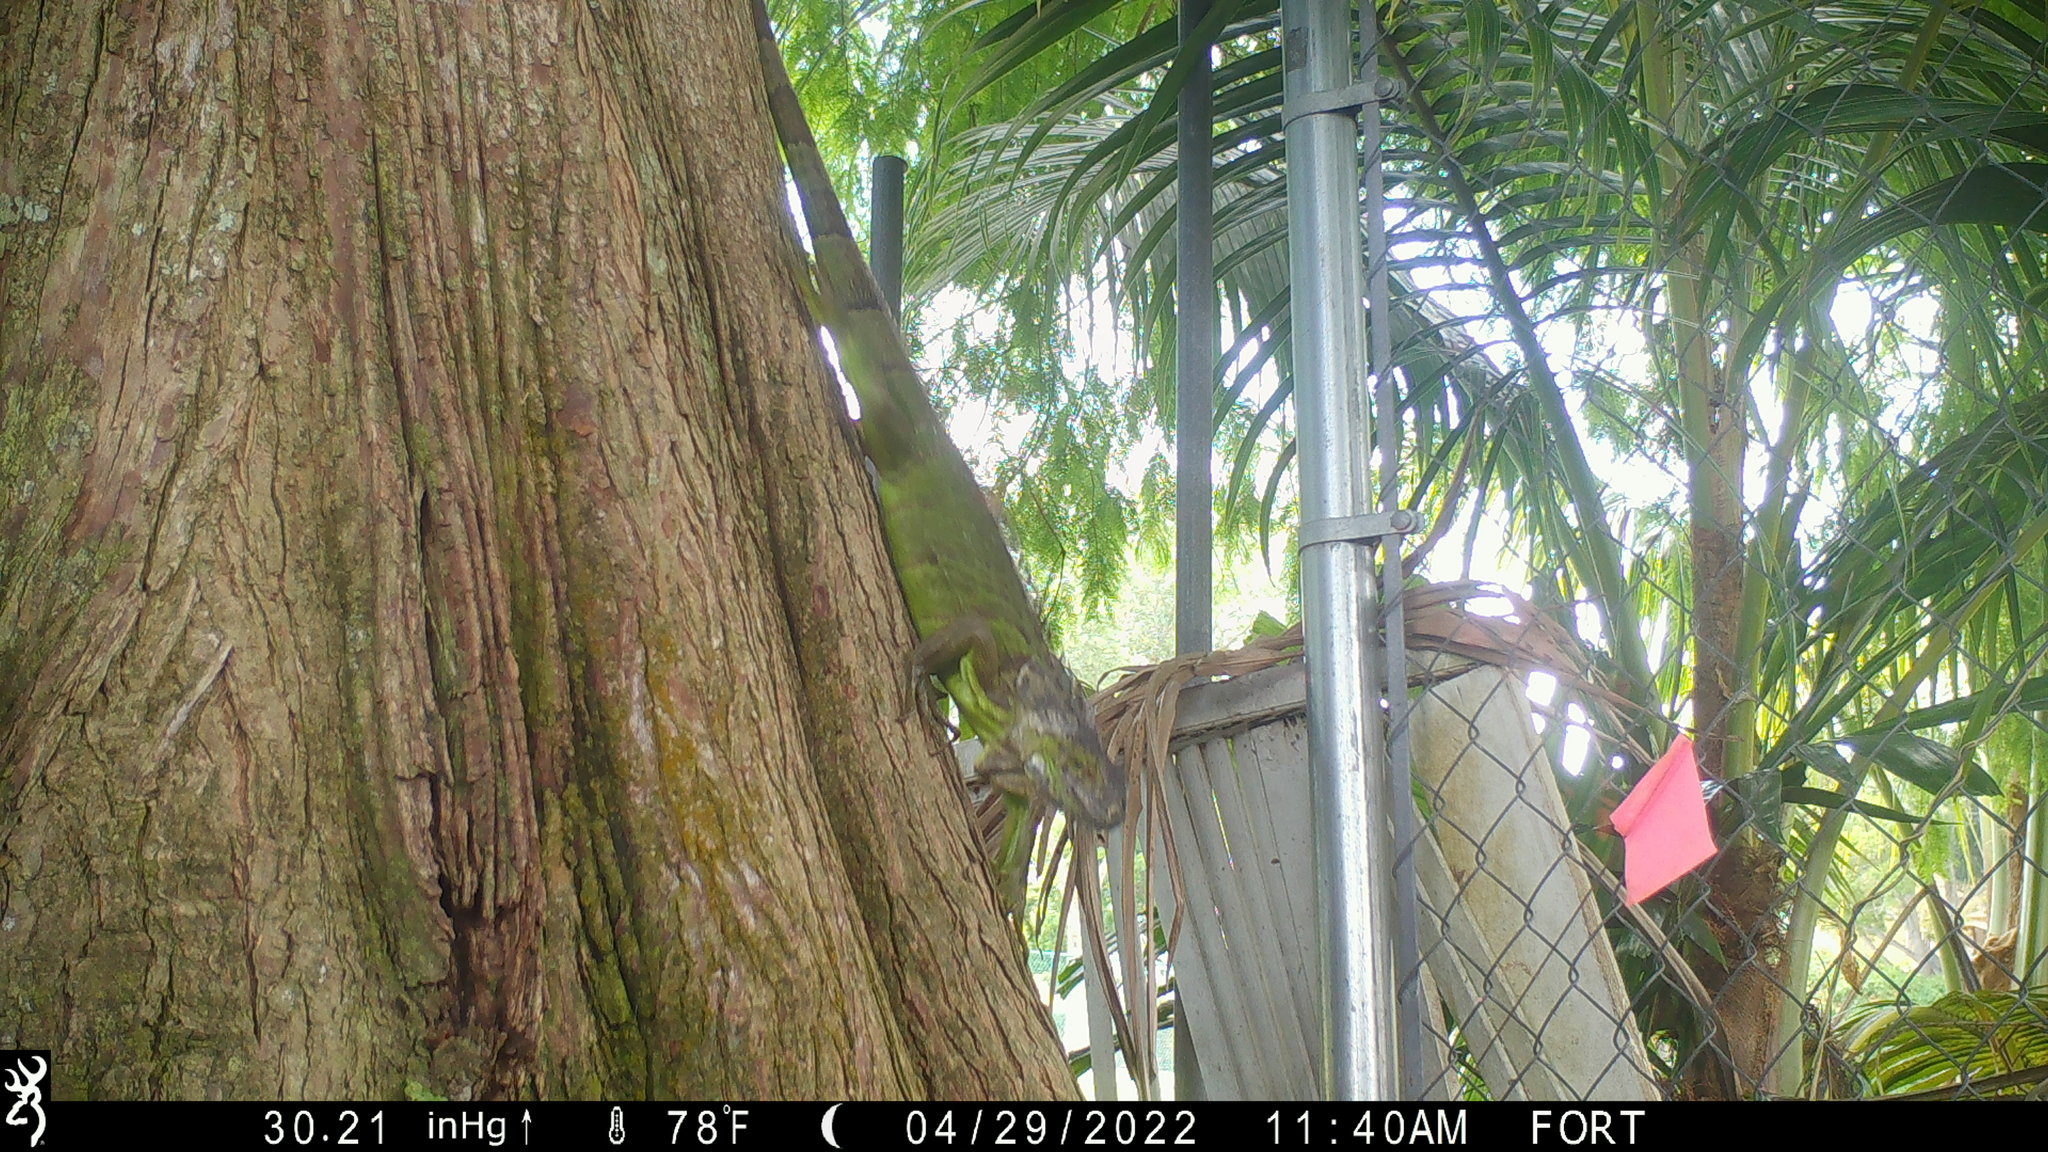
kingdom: Animalia
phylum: Chordata
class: Squamata
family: Iguanidae
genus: Iguana
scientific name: Iguana iguana
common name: Green iguana
